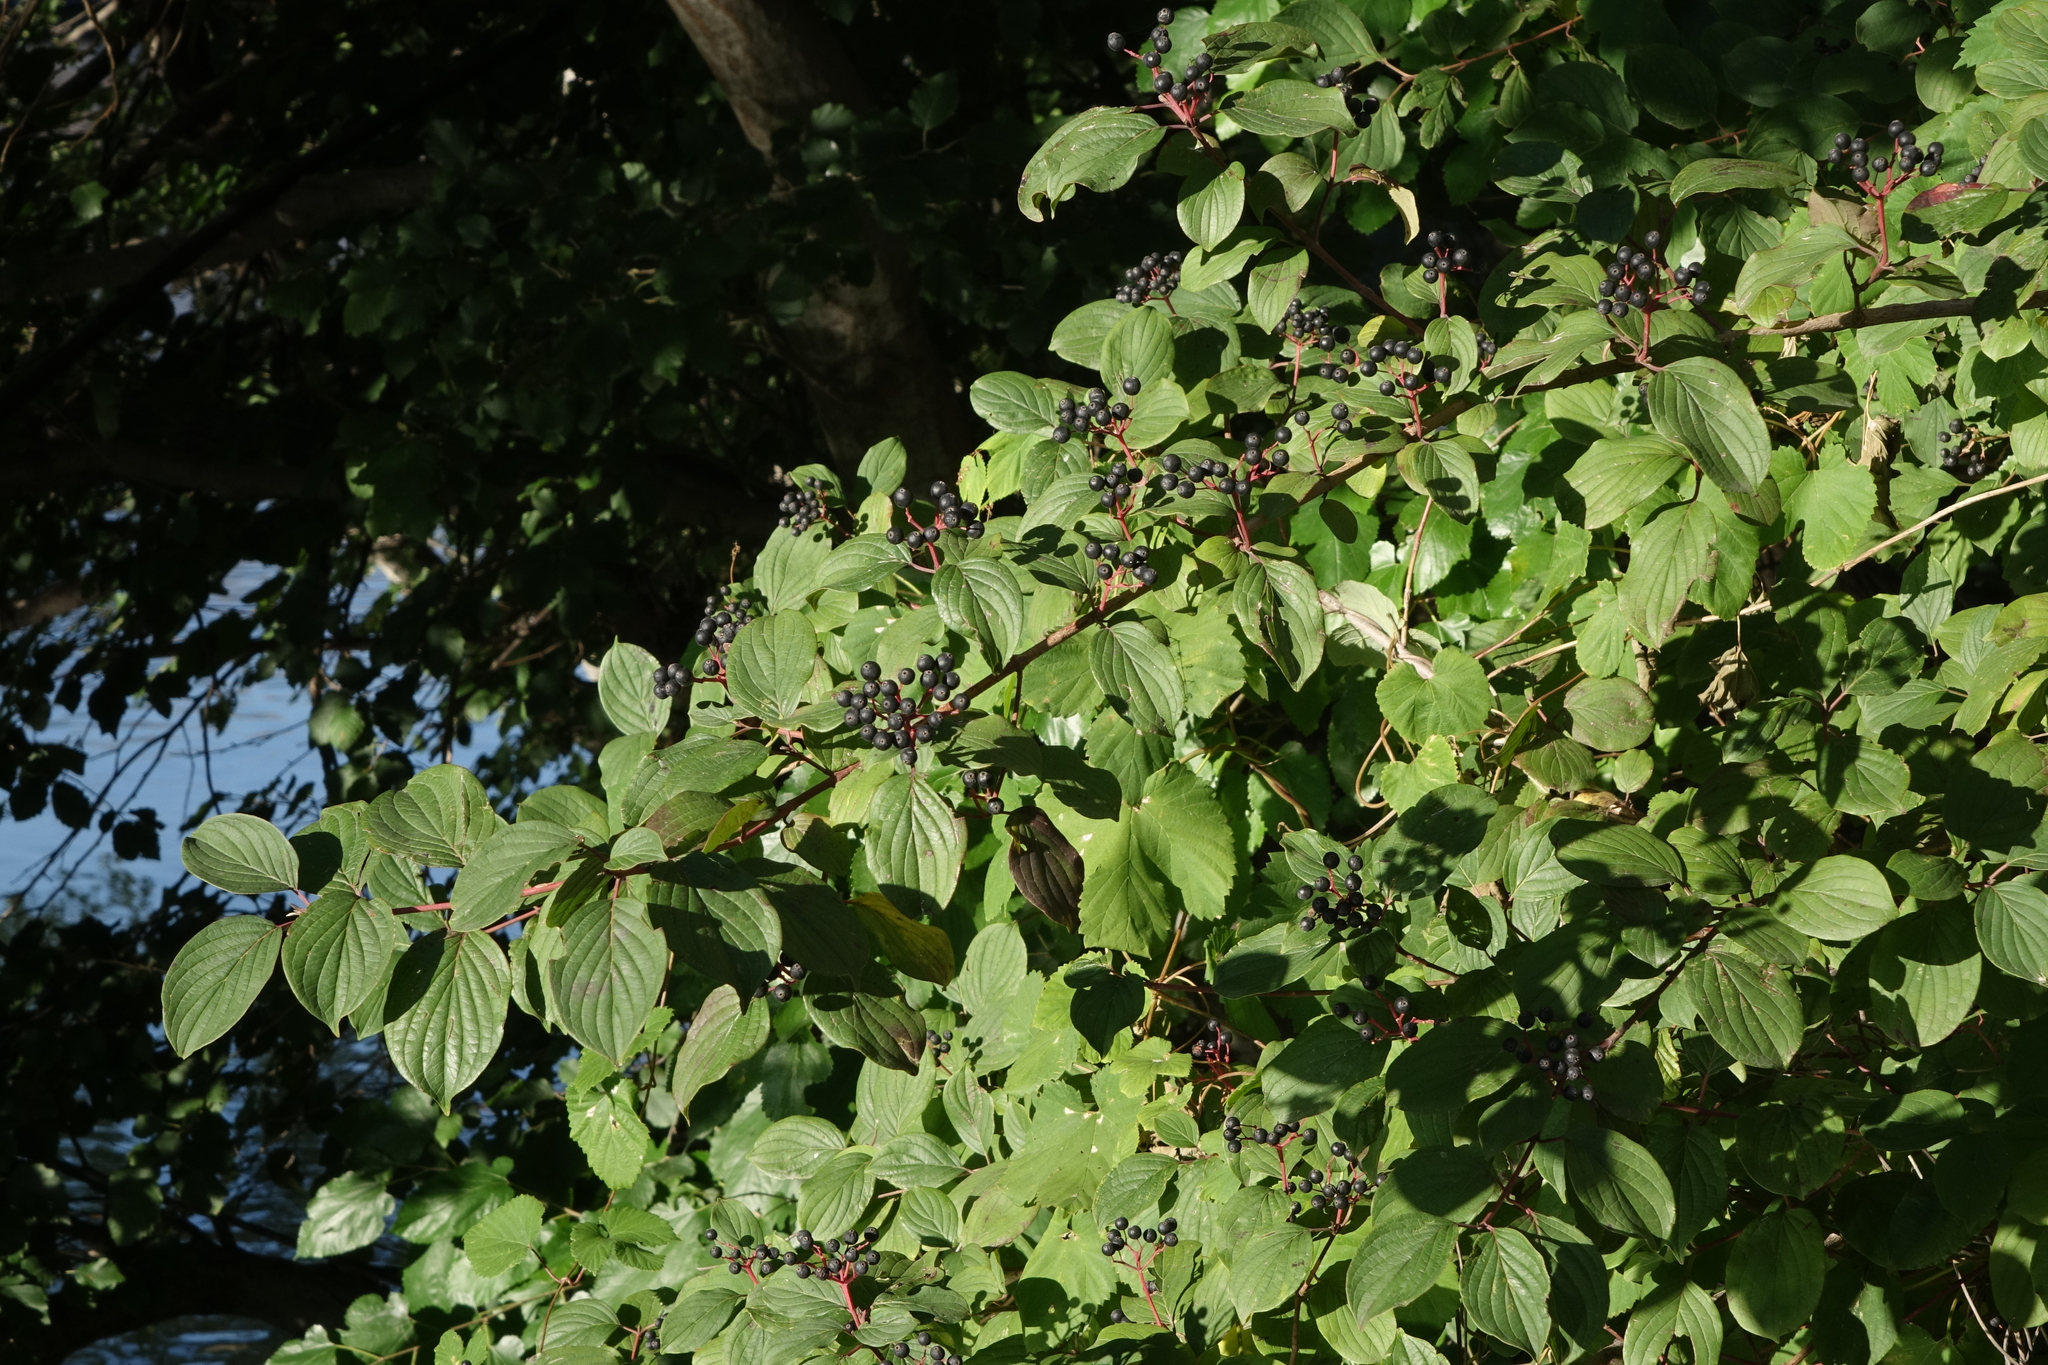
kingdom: Plantae
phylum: Tracheophyta
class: Magnoliopsida
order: Cornales
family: Cornaceae
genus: Cornus
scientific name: Cornus sanguinea
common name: Dogwood
